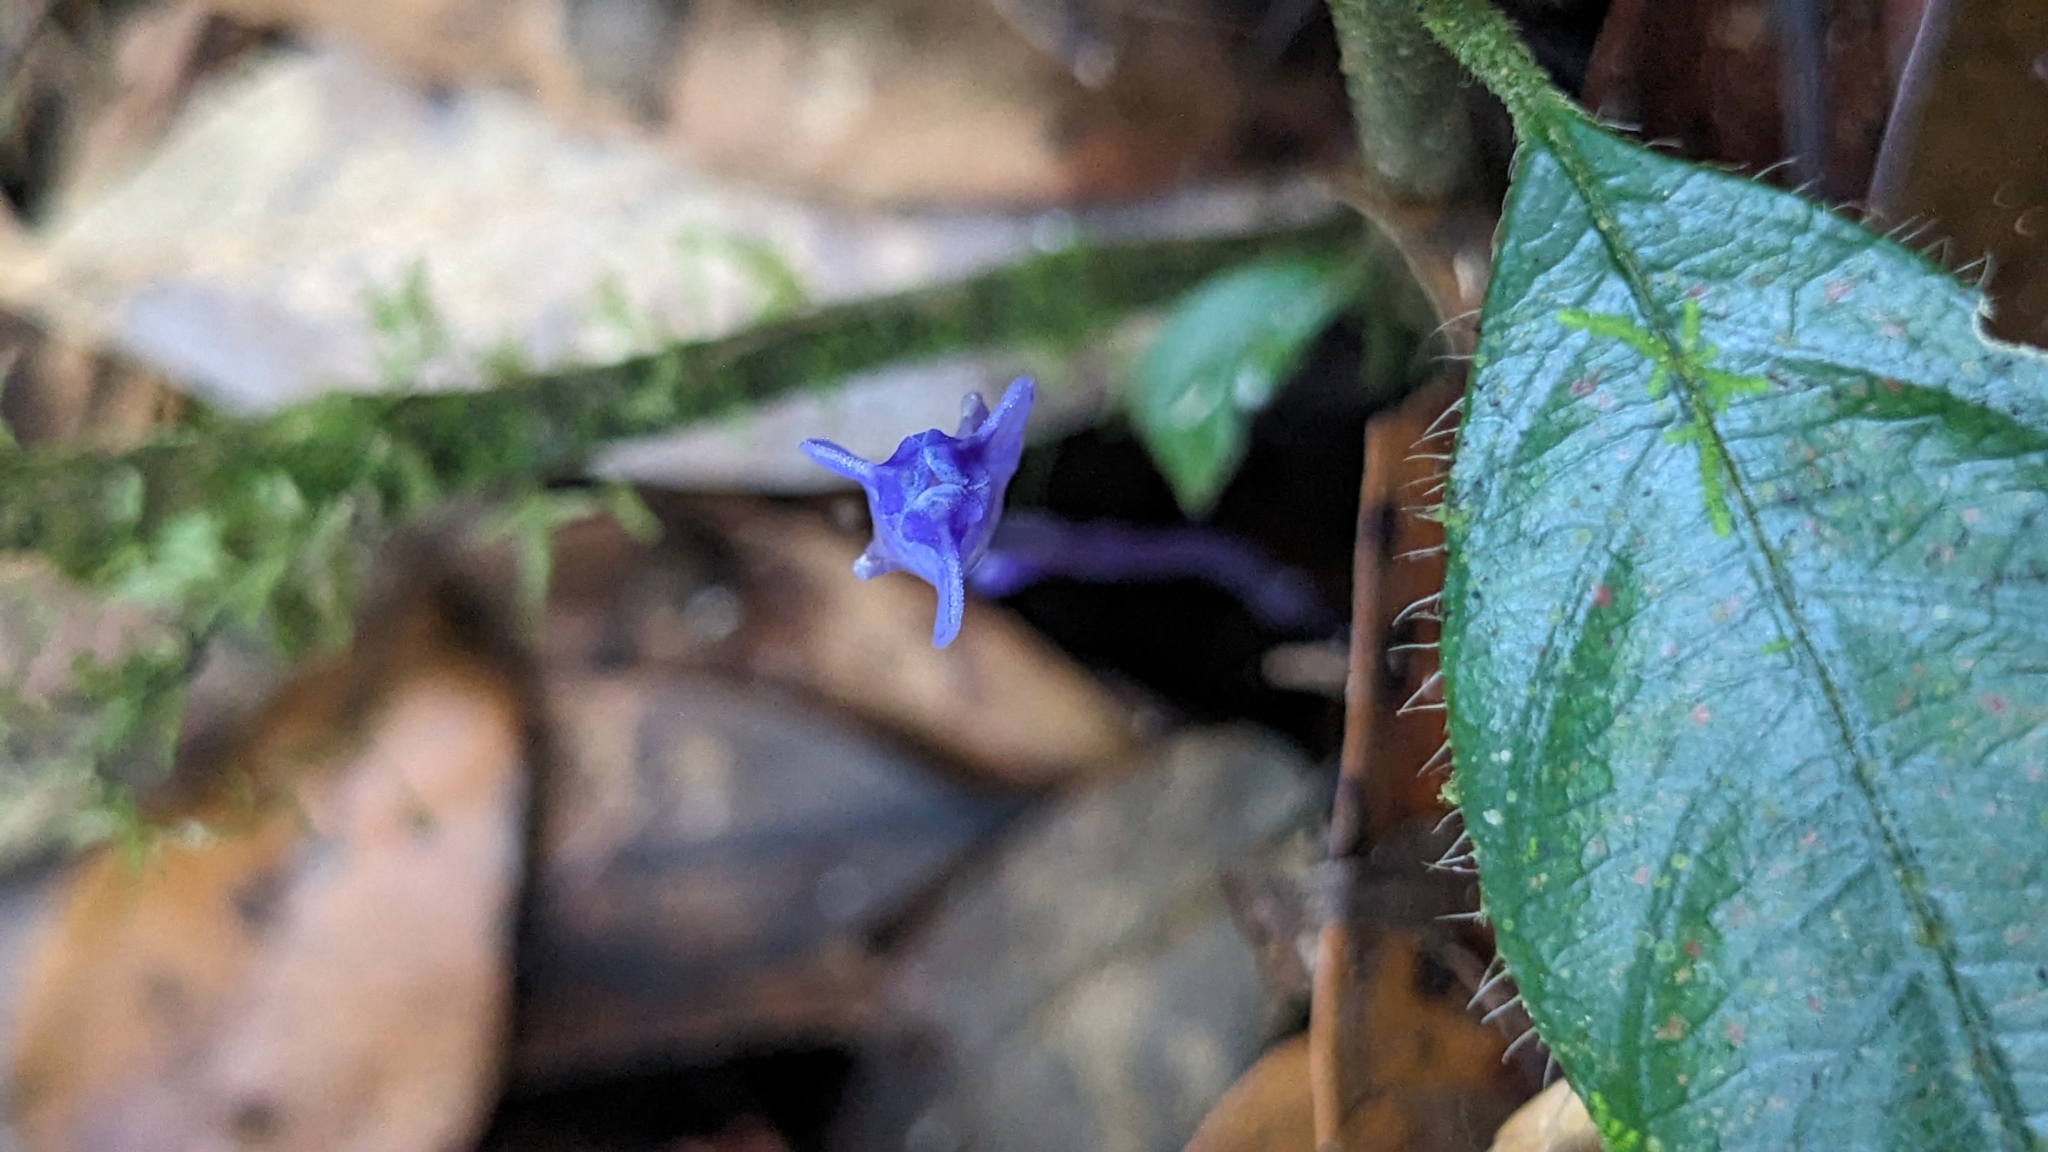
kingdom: Plantae
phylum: Tracheophyta
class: Liliopsida
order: Dioscoreales
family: Burmanniaceae
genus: Burmannia
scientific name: Burmannia itoana
